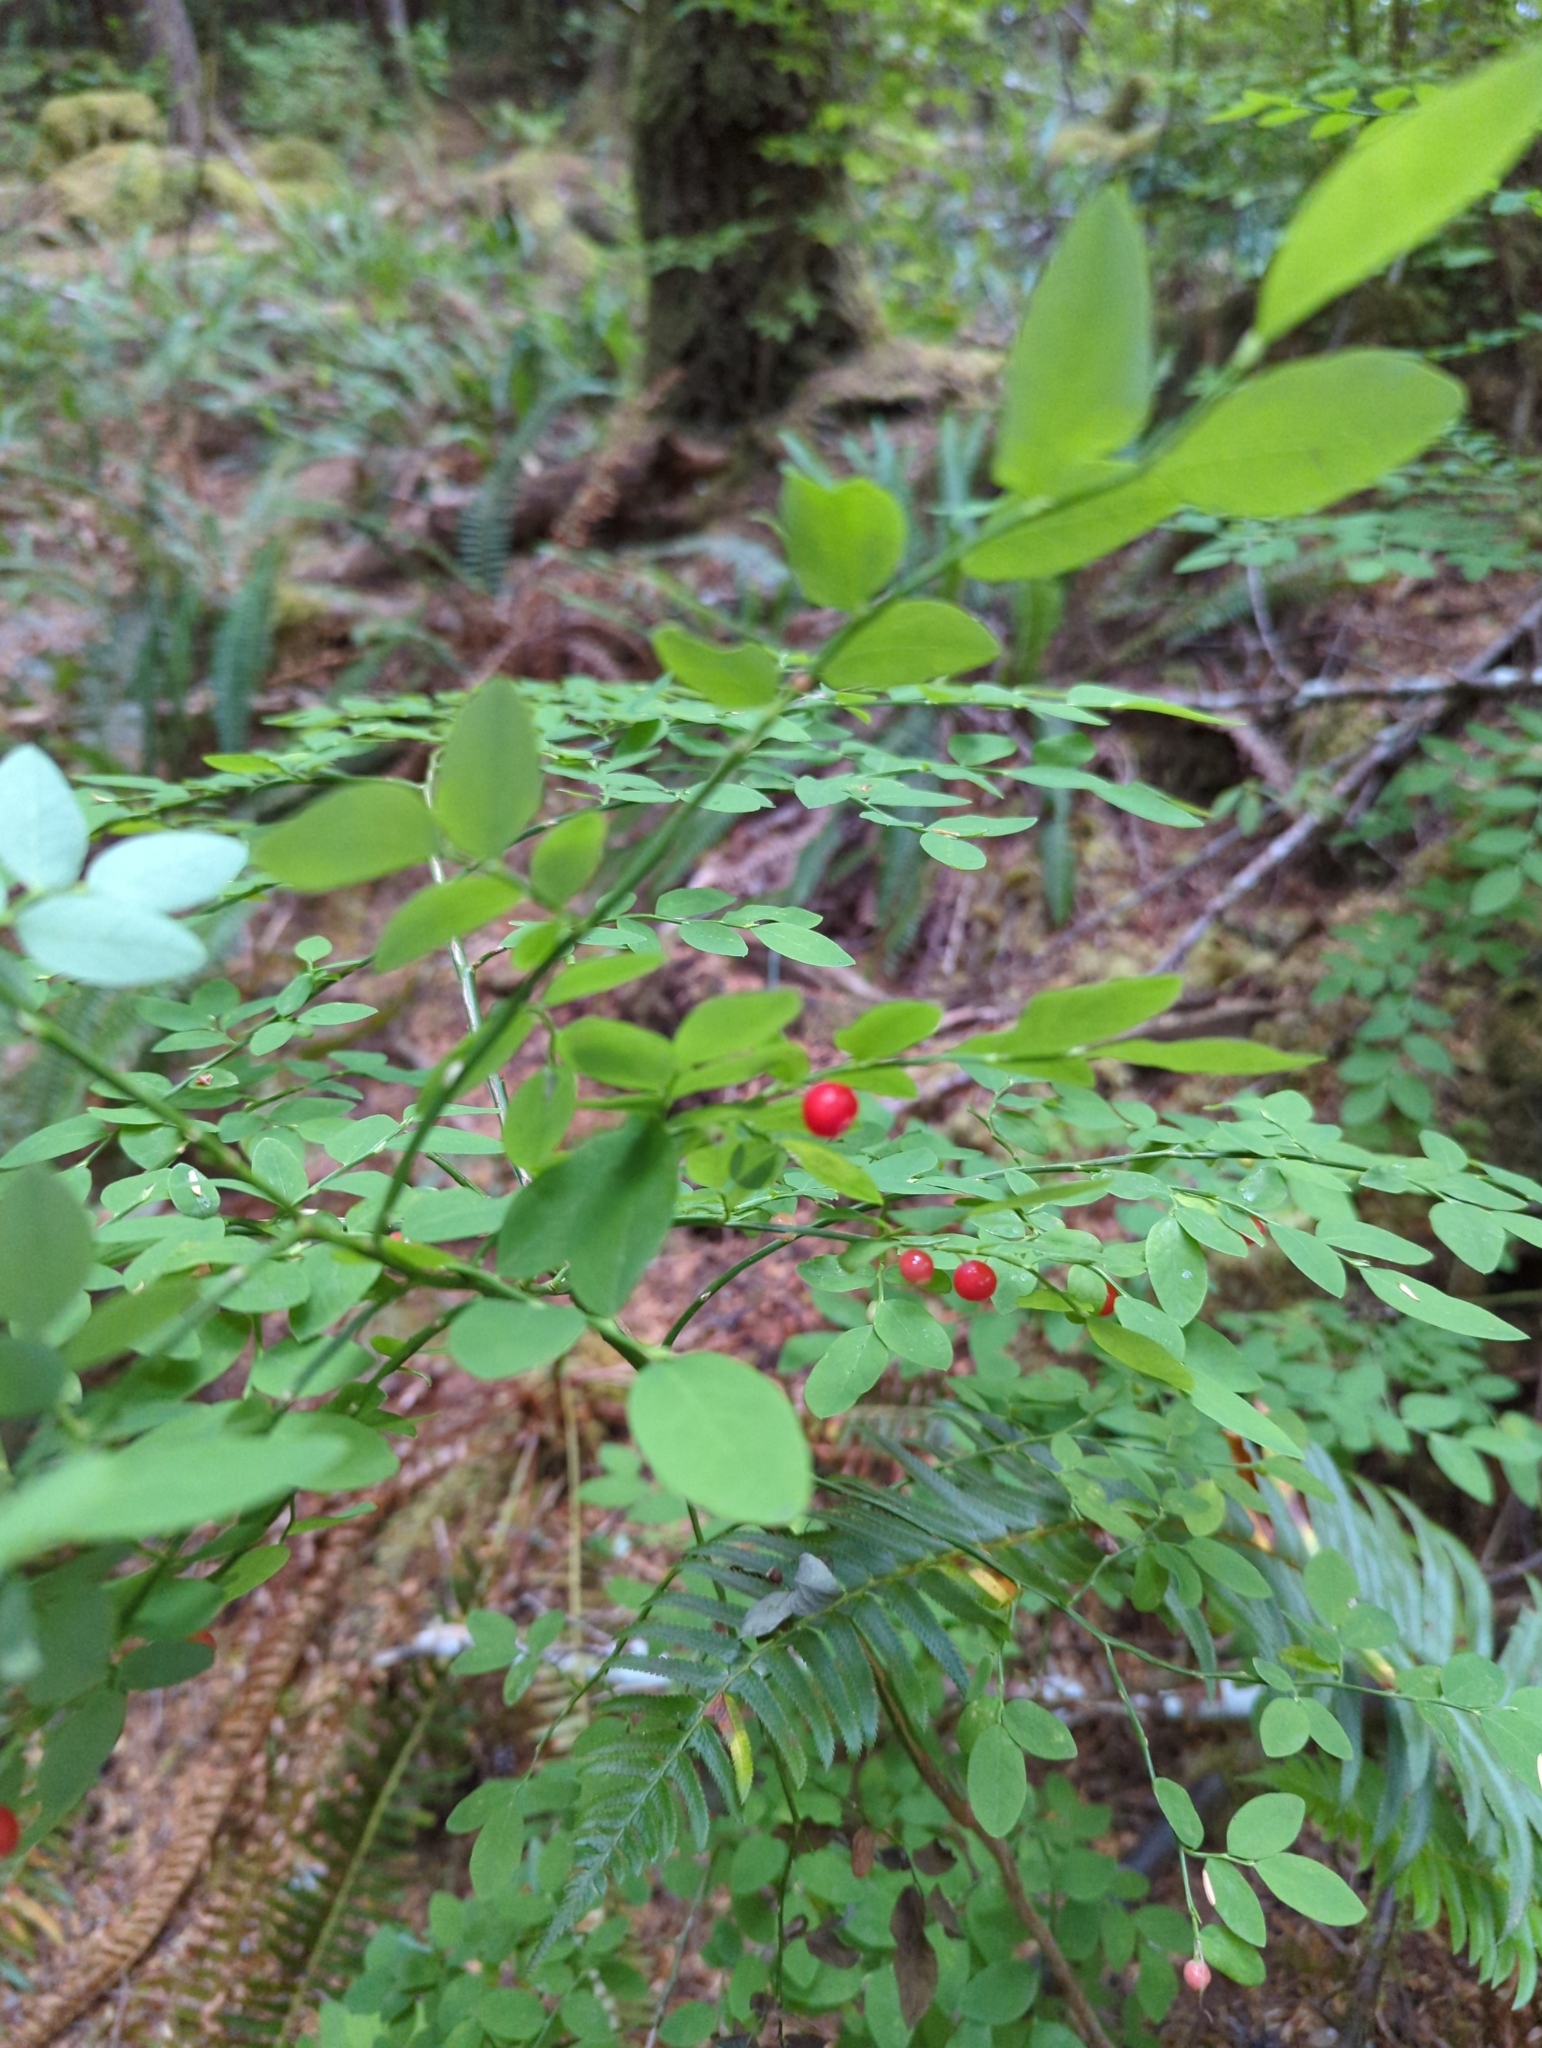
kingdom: Plantae
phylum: Tracheophyta
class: Magnoliopsida
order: Ericales
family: Ericaceae
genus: Vaccinium
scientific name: Vaccinium parvifolium
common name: Red-huckleberry
